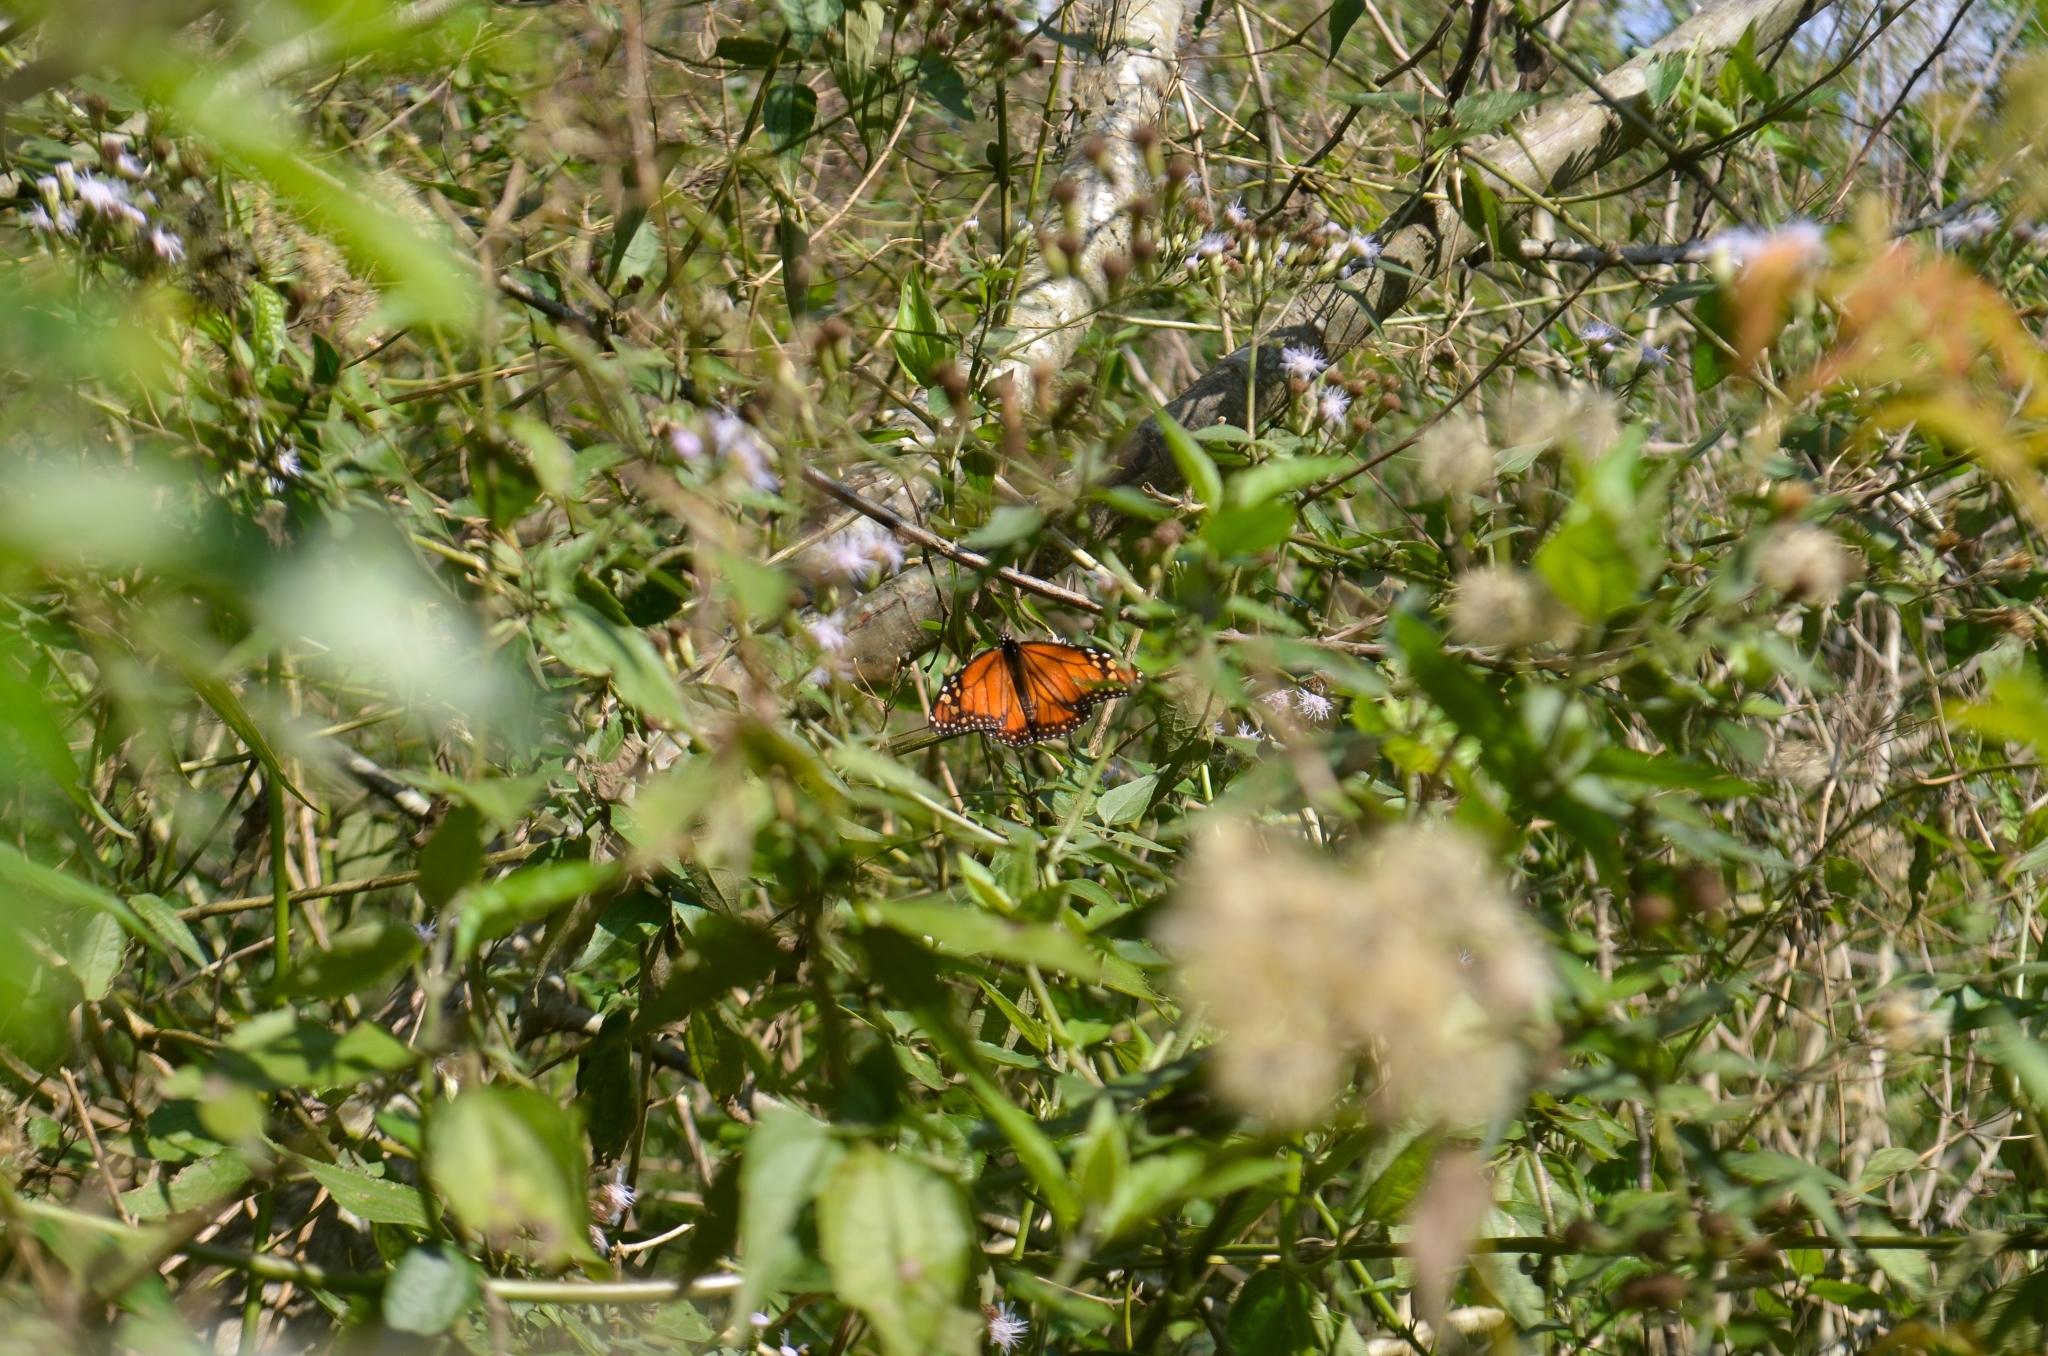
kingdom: Animalia
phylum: Arthropoda
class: Insecta
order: Lepidoptera
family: Nymphalidae
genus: Danaus
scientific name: Danaus erippus
